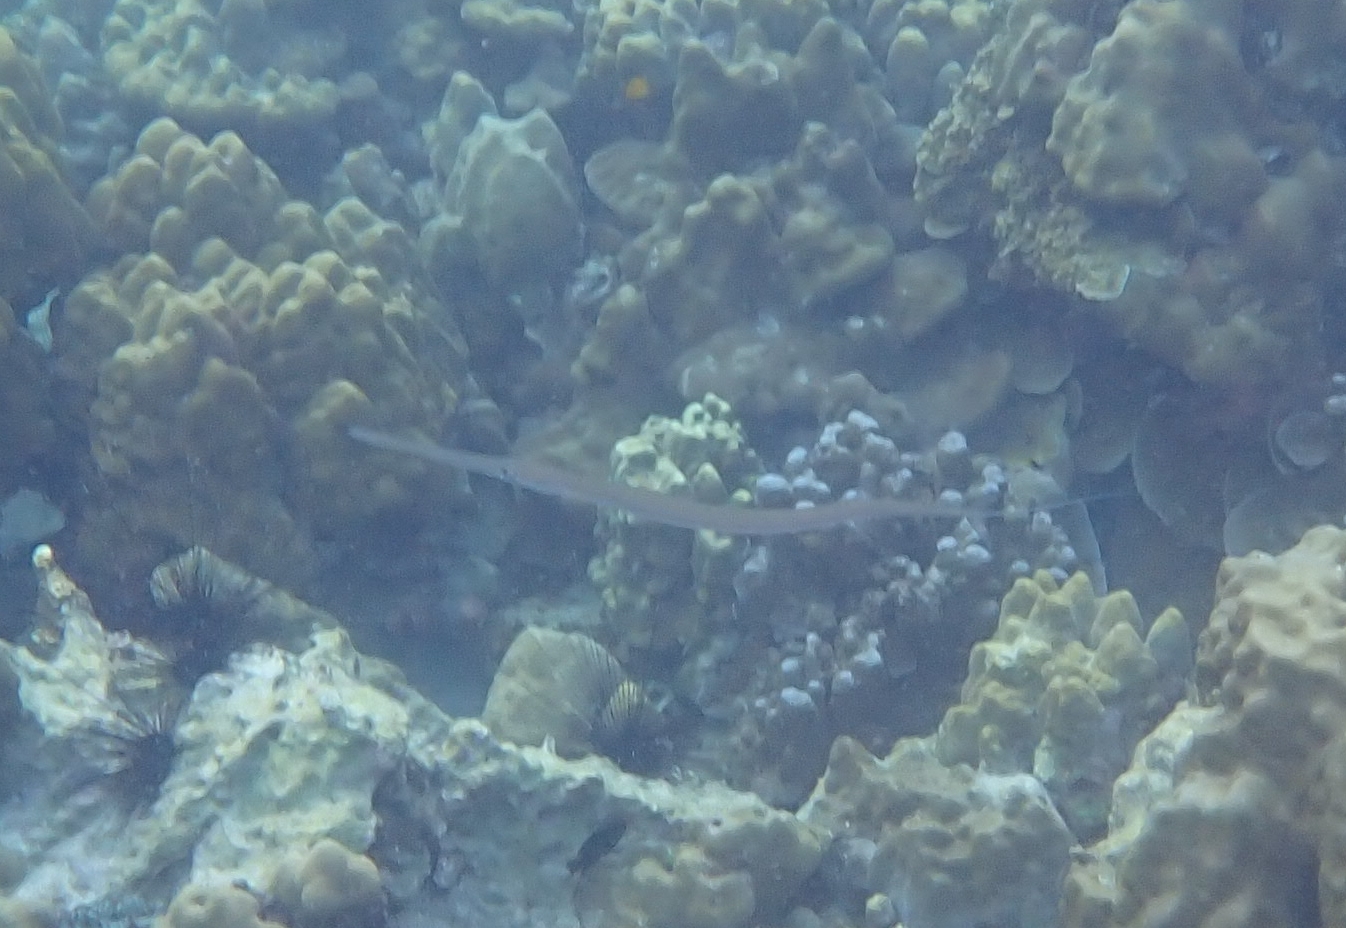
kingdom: Animalia
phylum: Chordata
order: Syngnathiformes
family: Fistulariidae
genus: Fistularia
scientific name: Fistularia commersonii
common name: Bluespotted cornetfish
